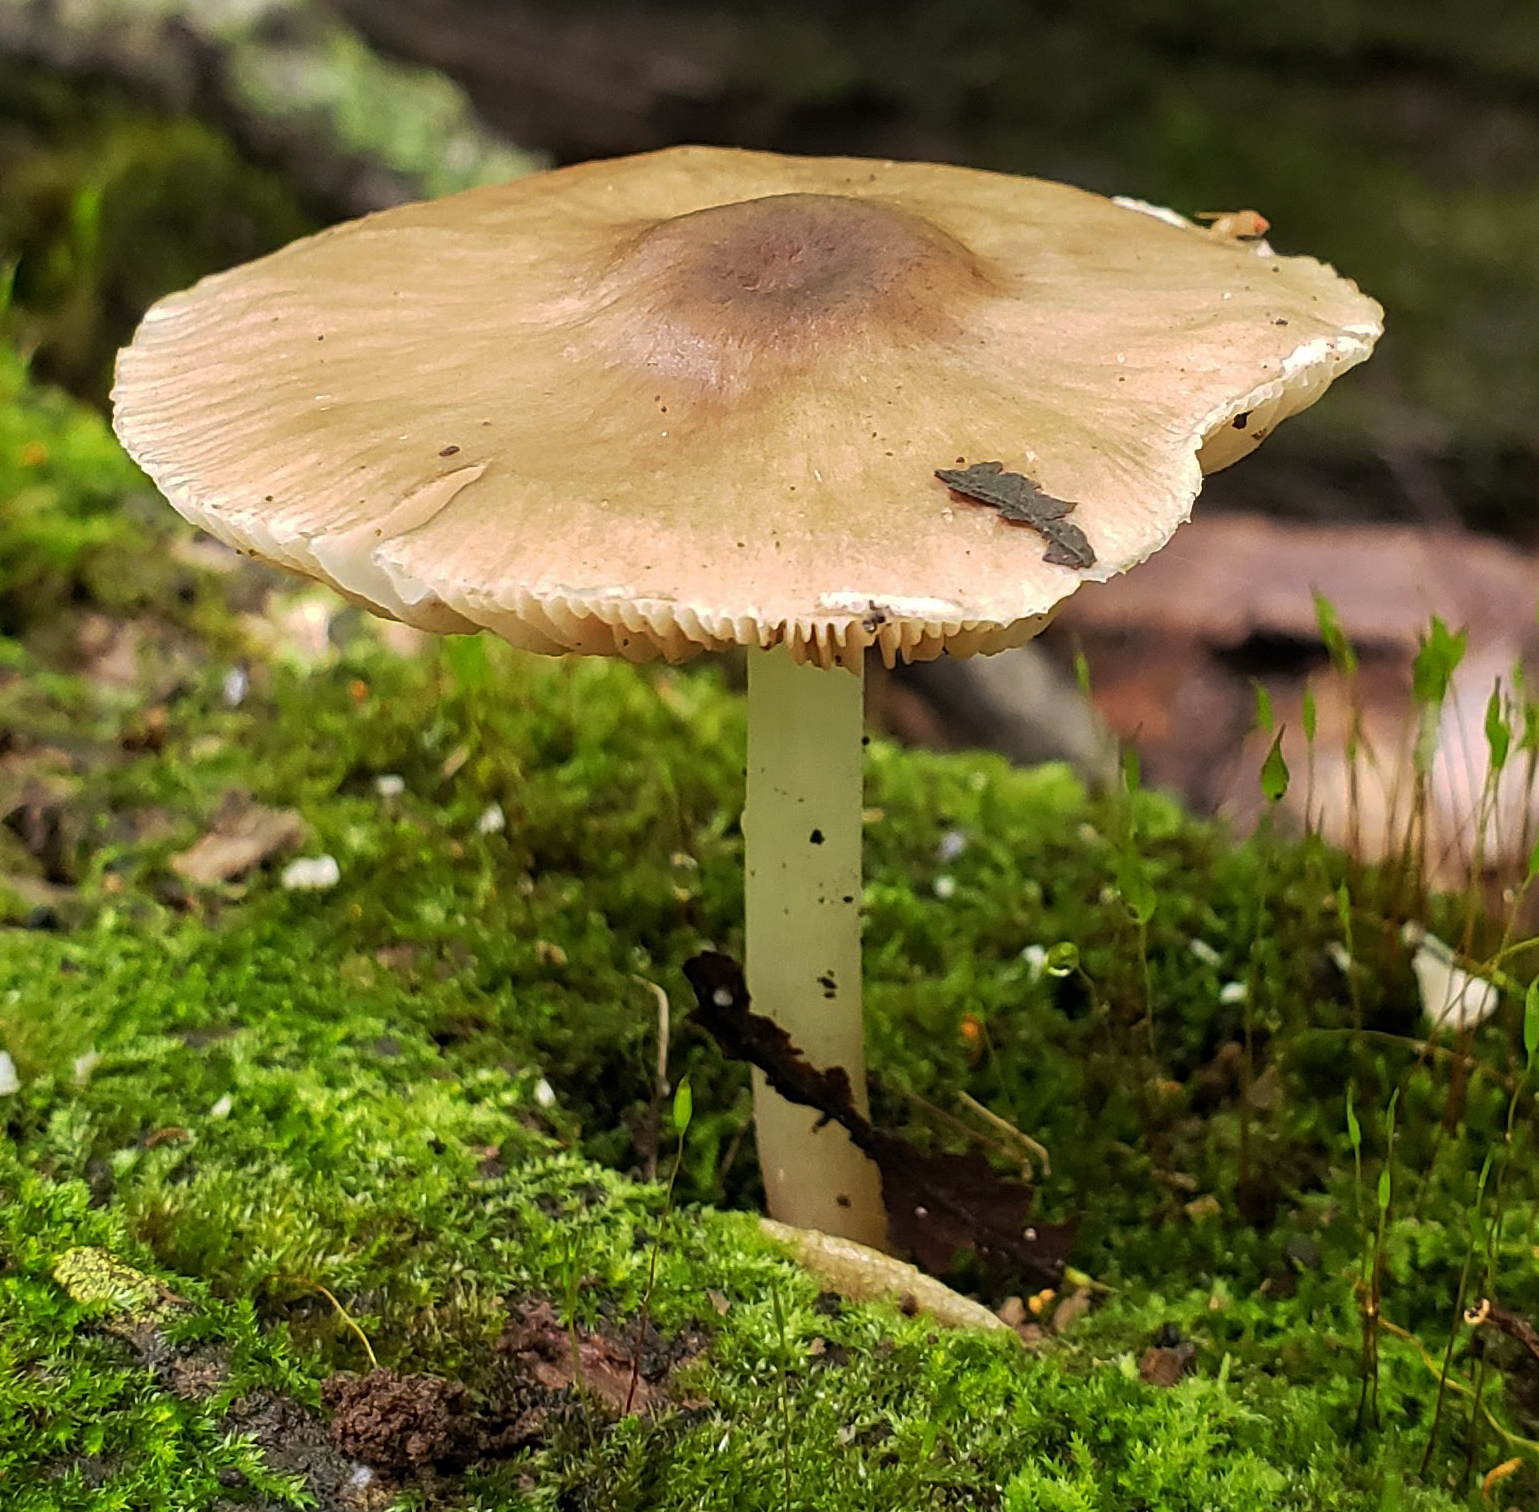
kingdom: Fungi
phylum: Basidiomycota
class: Agaricomycetes
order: Agaricales
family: Pluteaceae
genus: Pluteus
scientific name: Pluteus cervinus
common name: Deer shield
